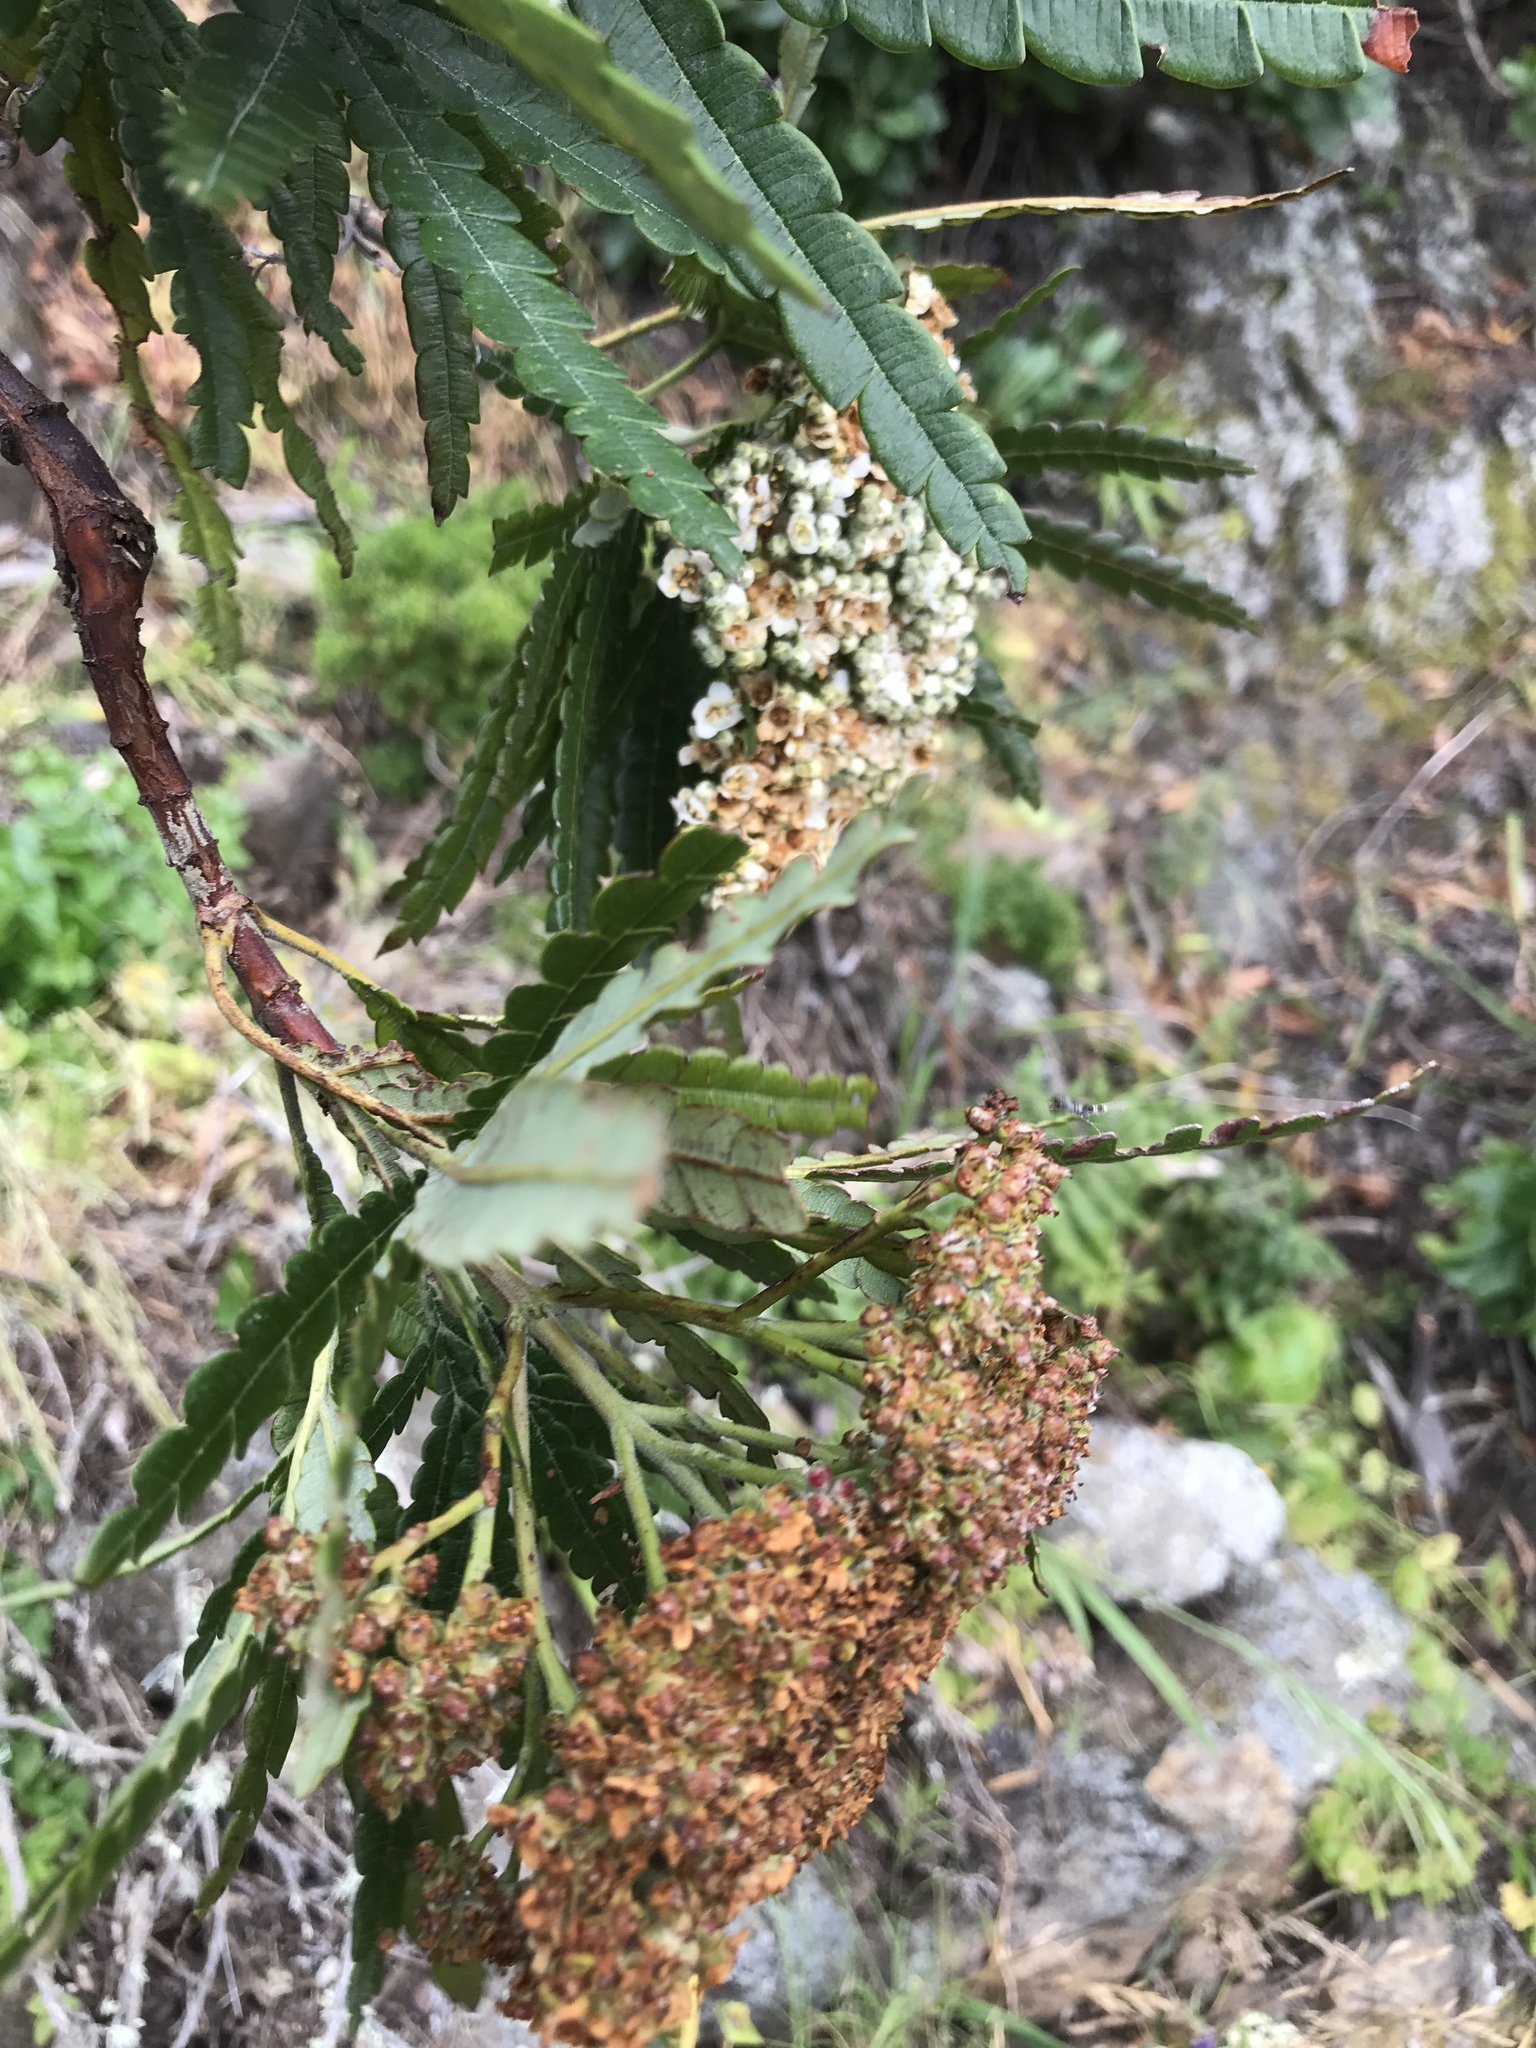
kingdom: Plantae
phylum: Tracheophyta
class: Magnoliopsida
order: Rosales
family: Rosaceae
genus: Lyonothamnus
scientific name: Lyonothamnus floribundus
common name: Catalina ironwood
